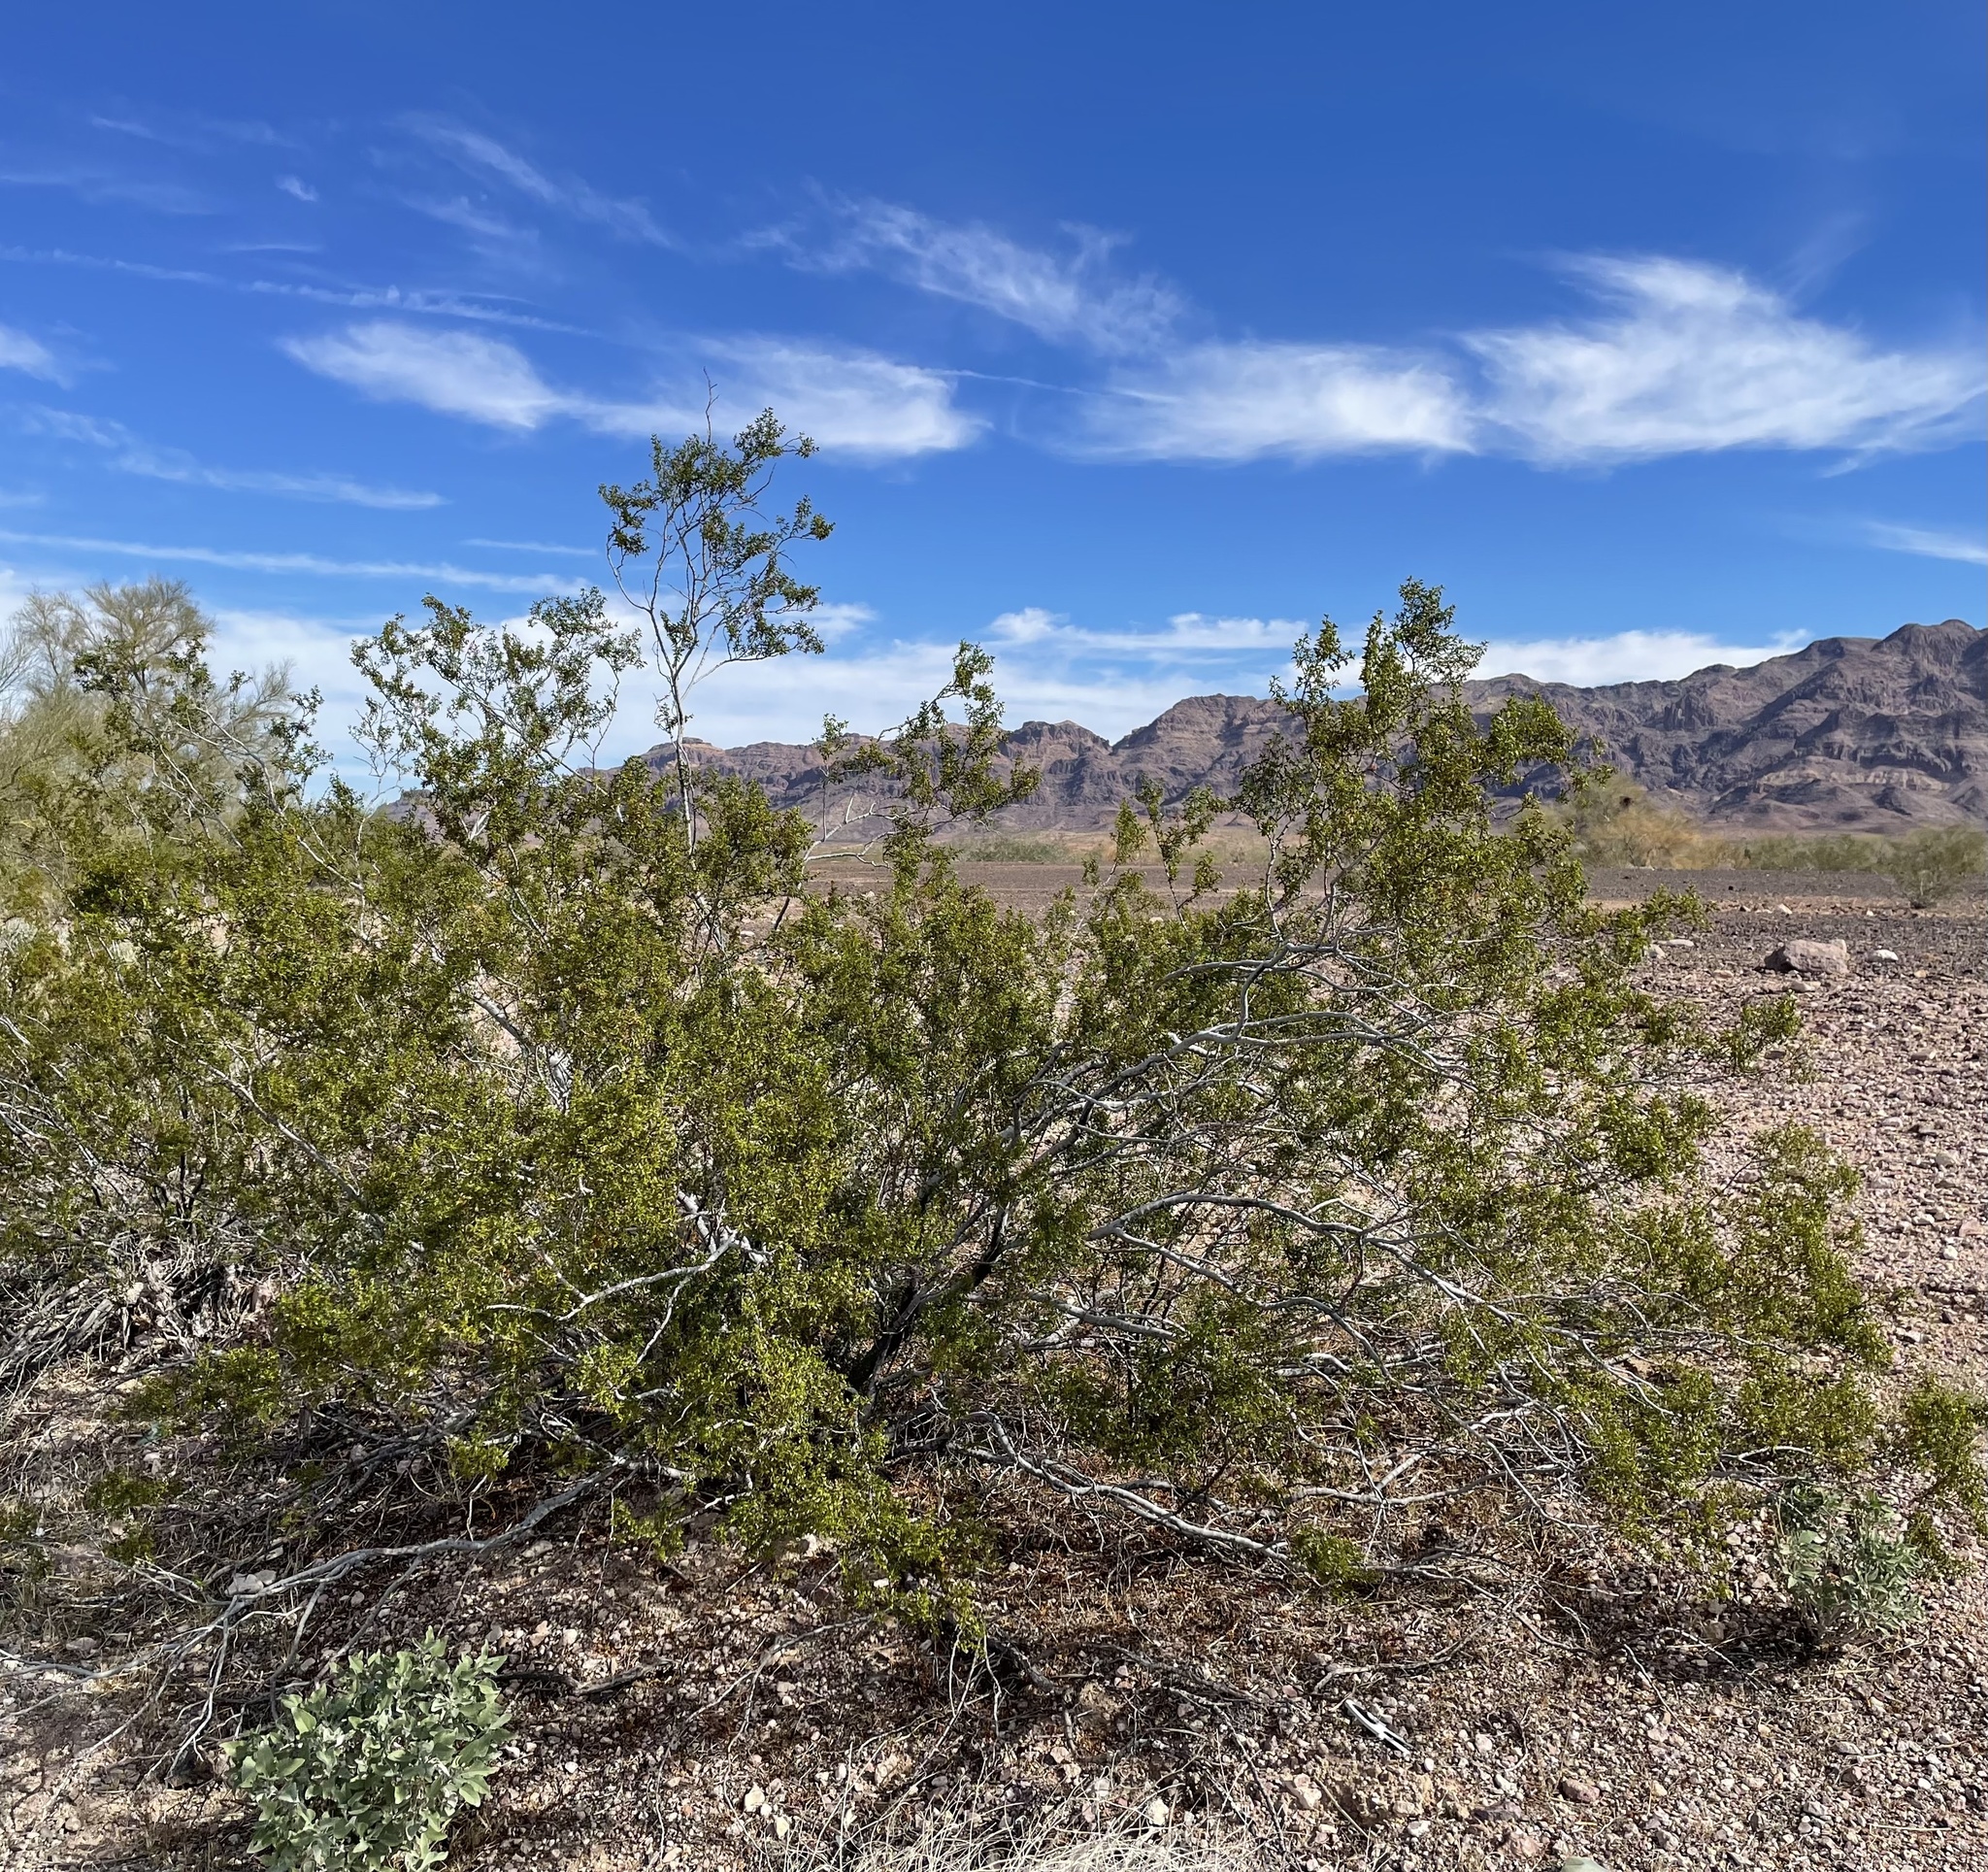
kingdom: Animalia
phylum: Arthropoda
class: Insecta
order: Diptera
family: Cecidomyiidae
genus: Asphondylia
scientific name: Asphondylia rosetta
